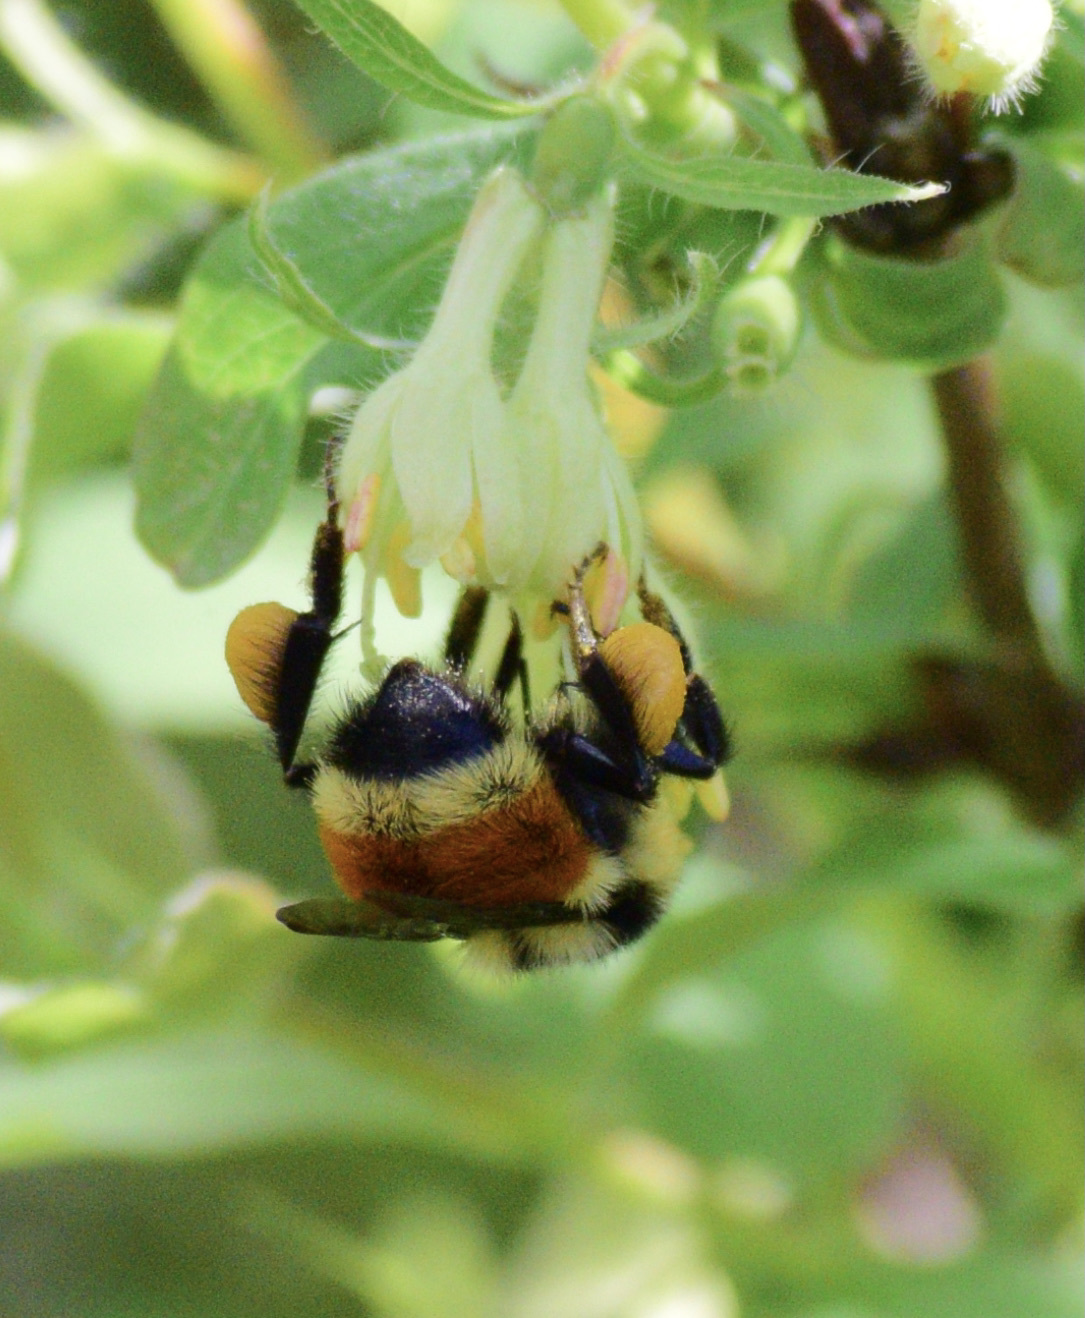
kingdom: Animalia
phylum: Arthropoda
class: Insecta
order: Hymenoptera
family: Apidae
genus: Bombus
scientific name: Bombus ternarius
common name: Tri-colored bumble bee
